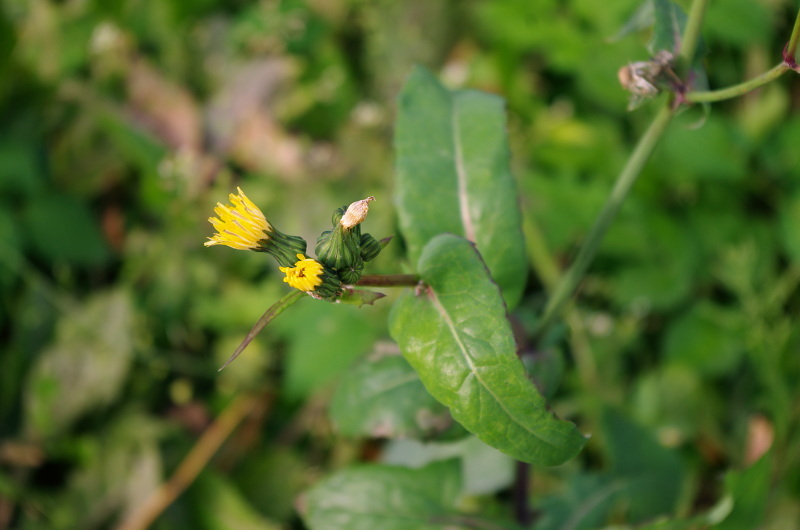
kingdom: Plantae
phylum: Tracheophyta
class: Magnoliopsida
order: Asterales
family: Asteraceae
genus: Sonchus
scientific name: Sonchus oleraceus
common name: Common sowthistle
